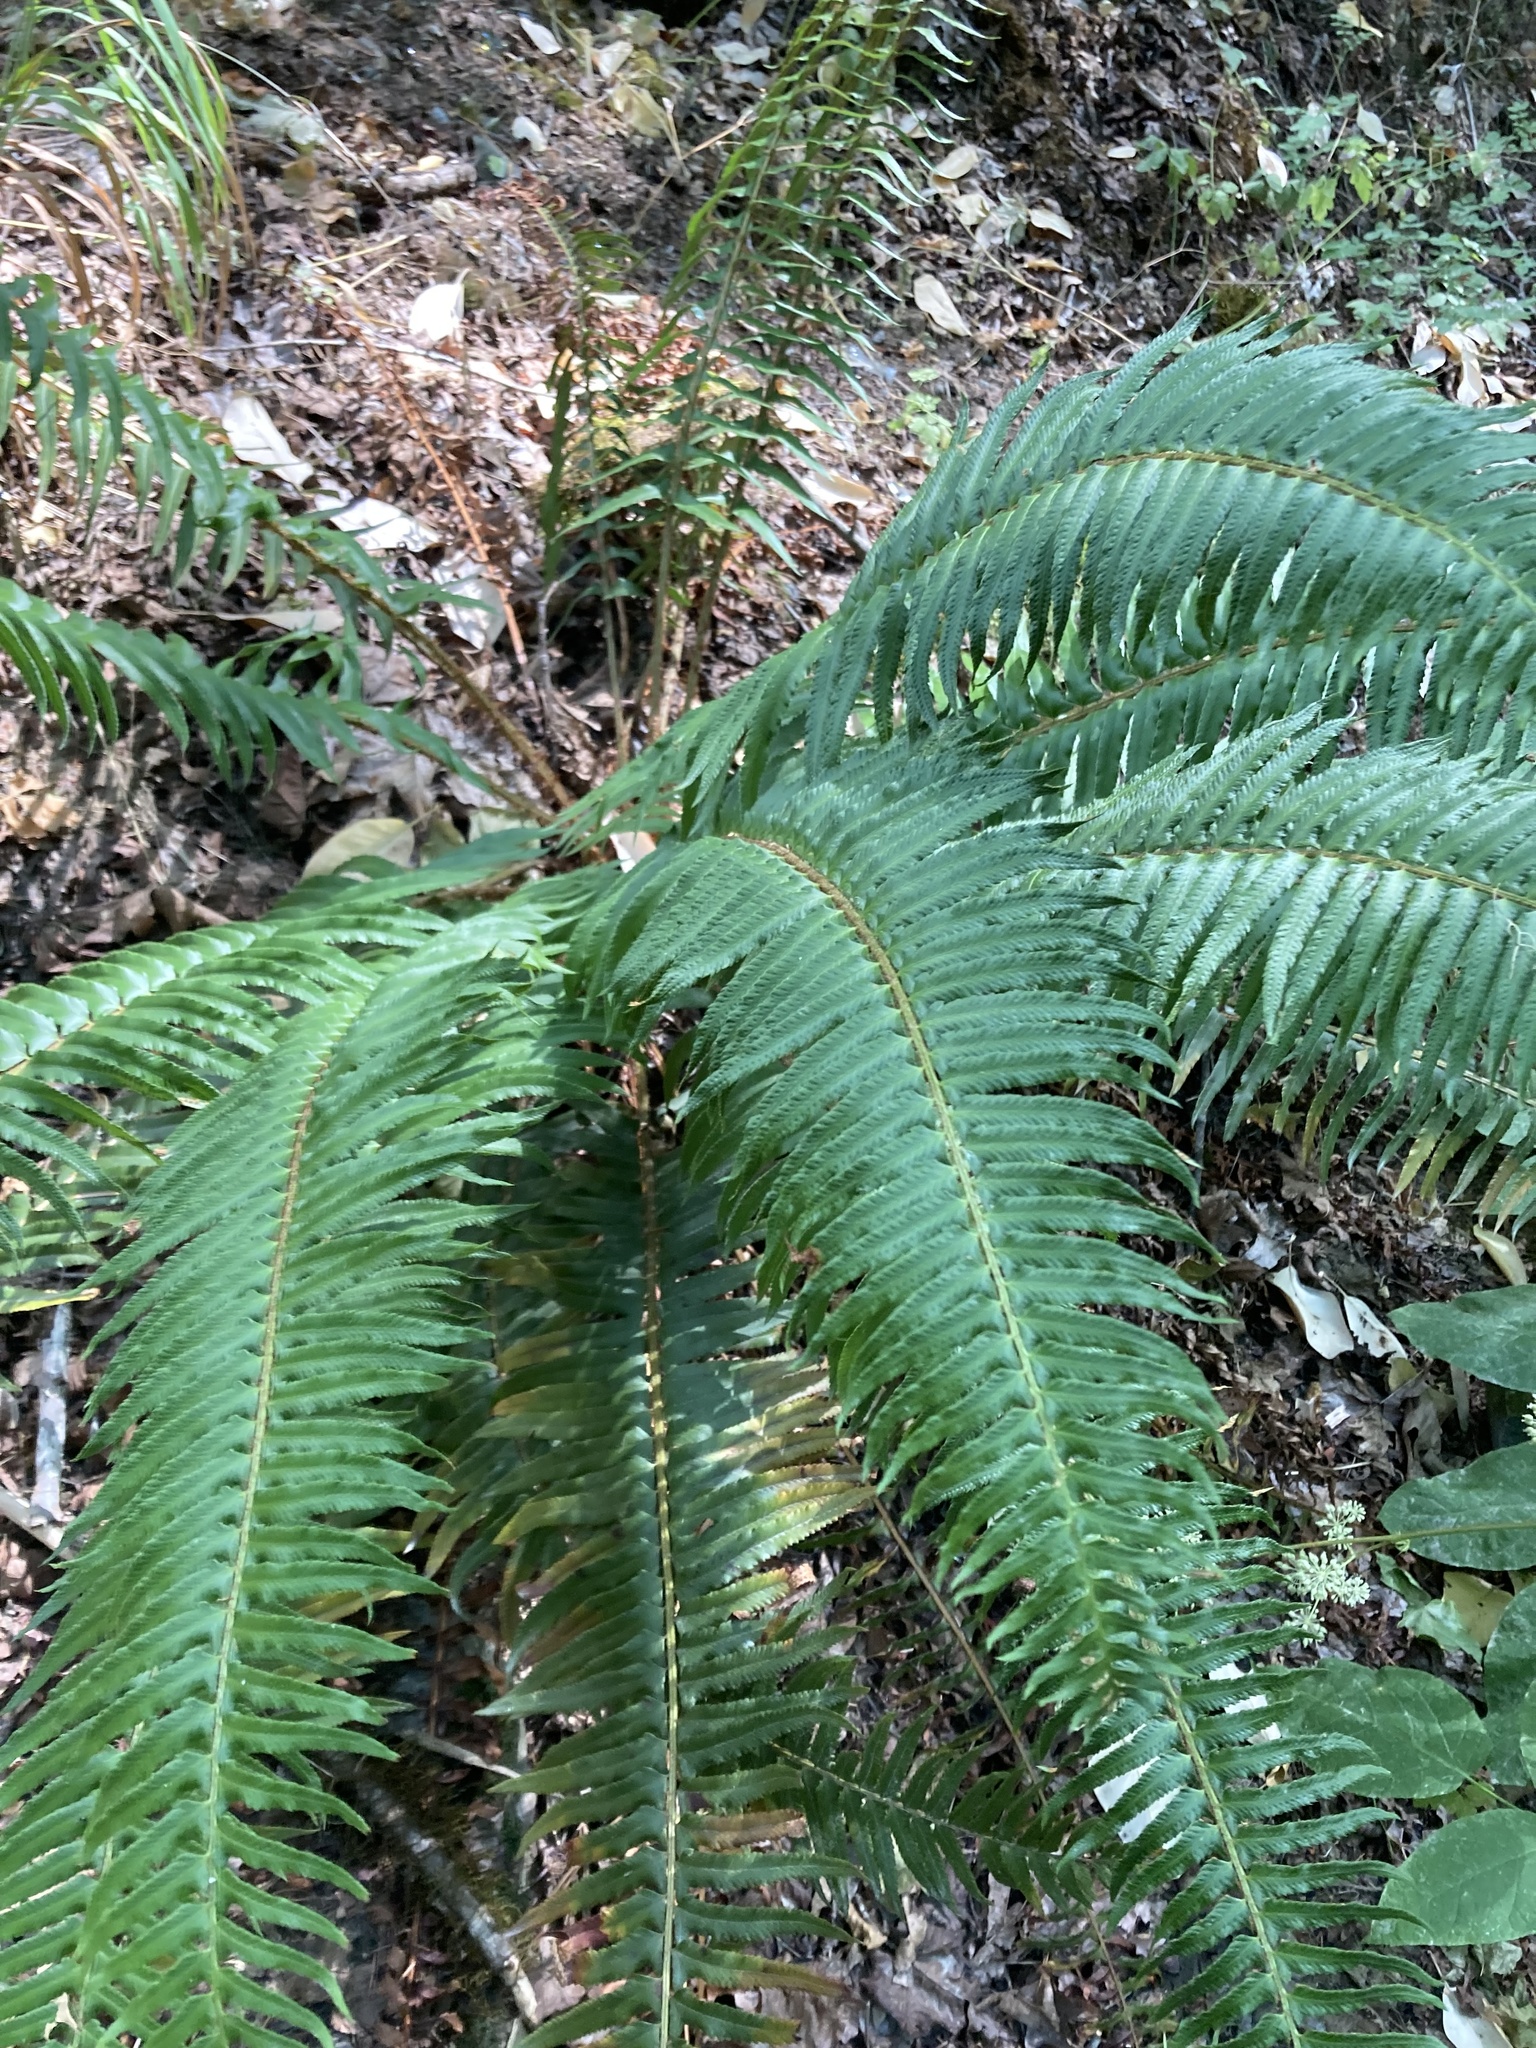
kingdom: Plantae
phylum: Tracheophyta
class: Polypodiopsida
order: Polypodiales
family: Dryopteridaceae
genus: Polystichum
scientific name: Polystichum munitum
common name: Western sword-fern
